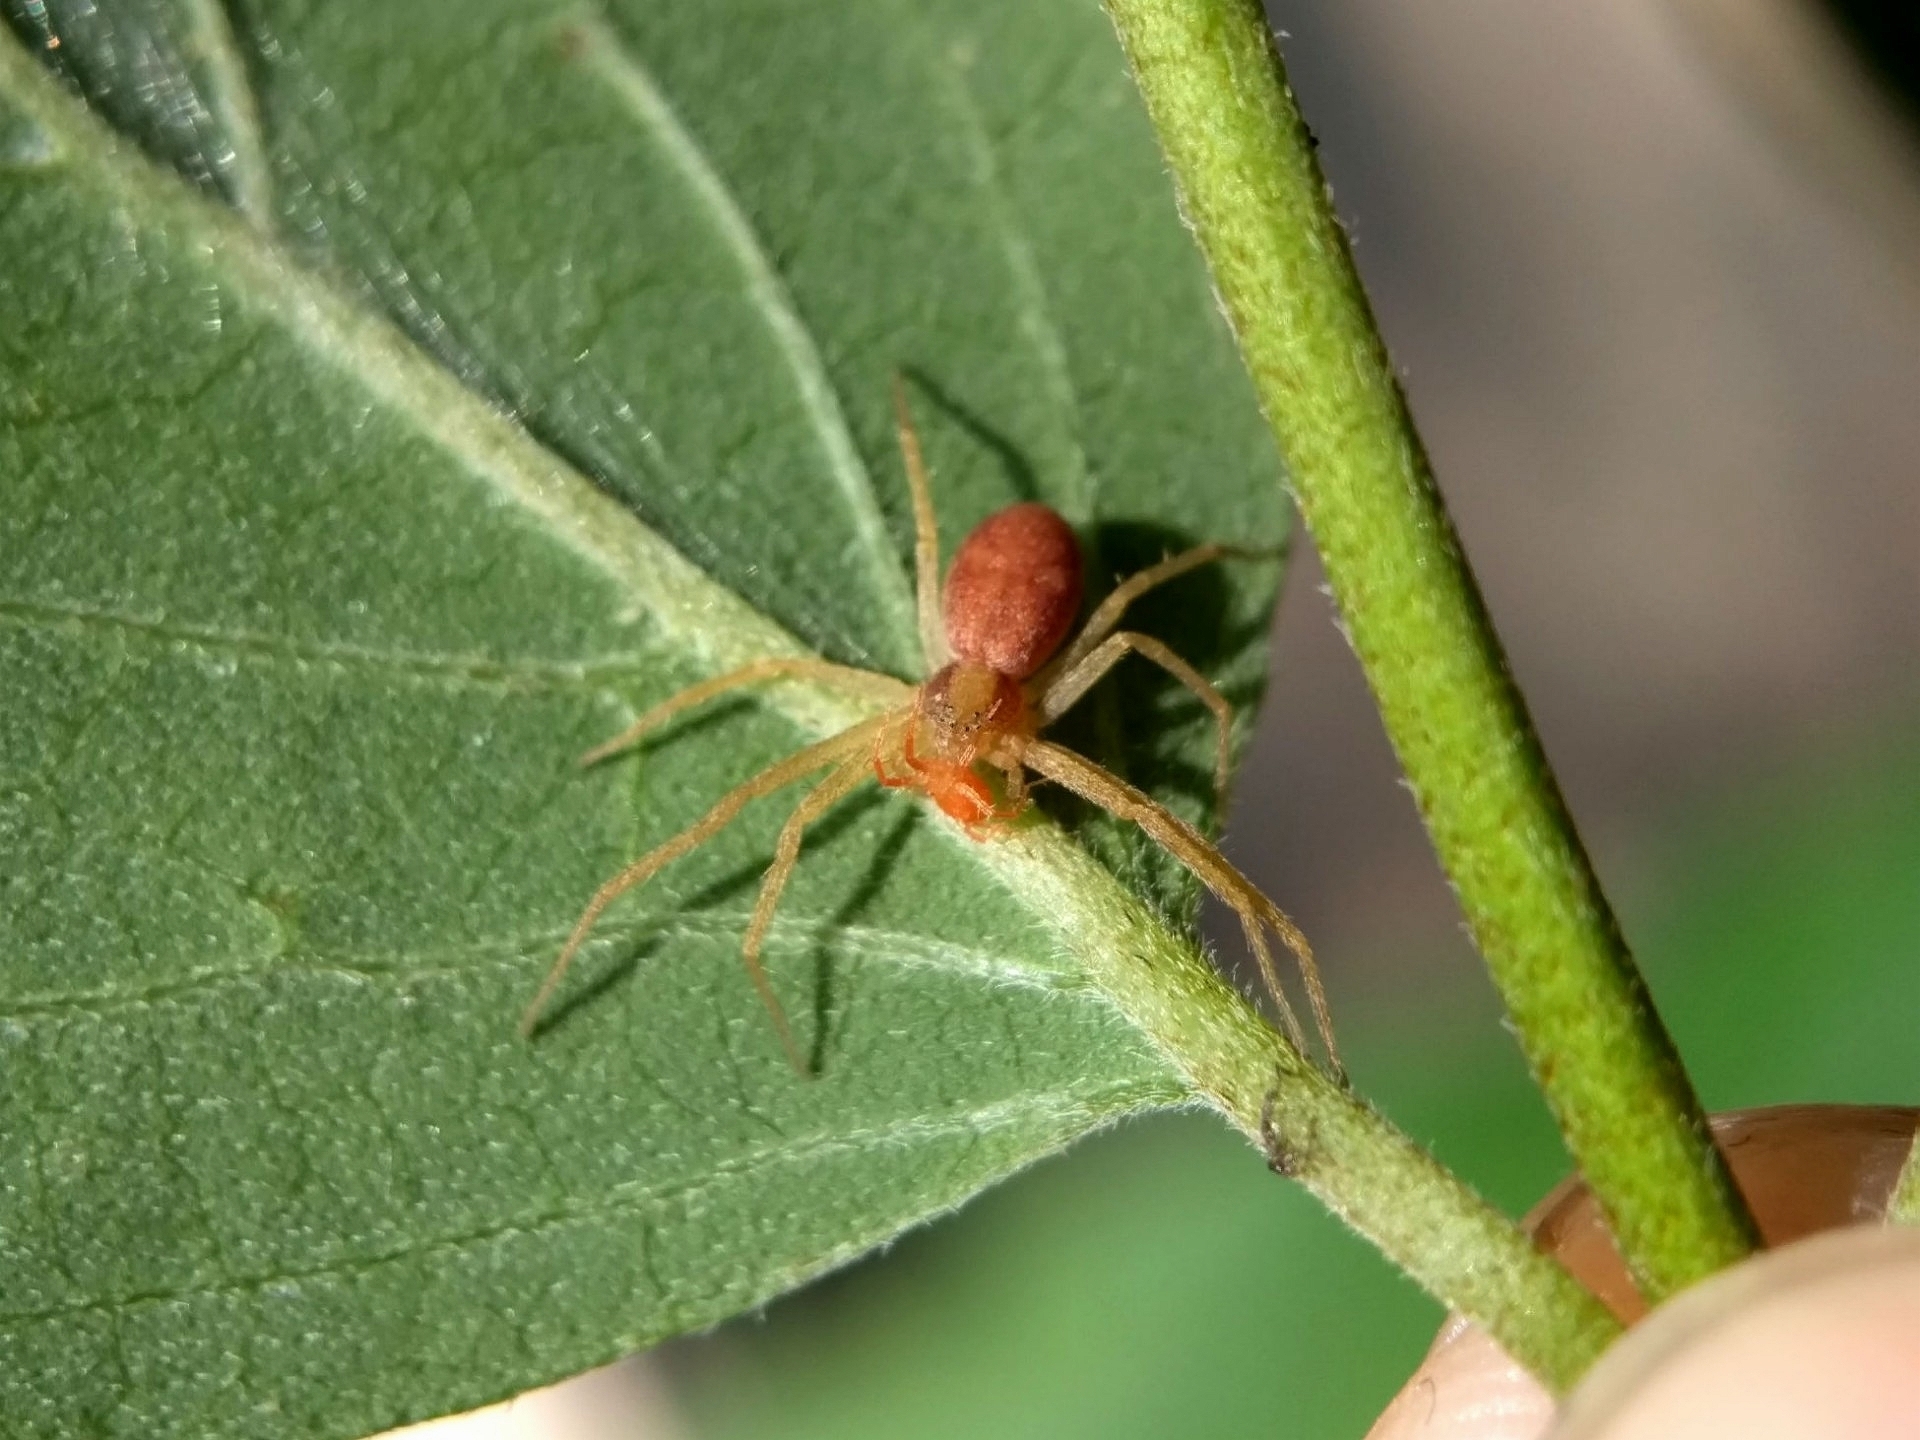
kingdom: Animalia
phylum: Arthropoda
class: Arachnida
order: Araneae
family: Philodromidae
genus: Philodromus
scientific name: Philodromus rufus
